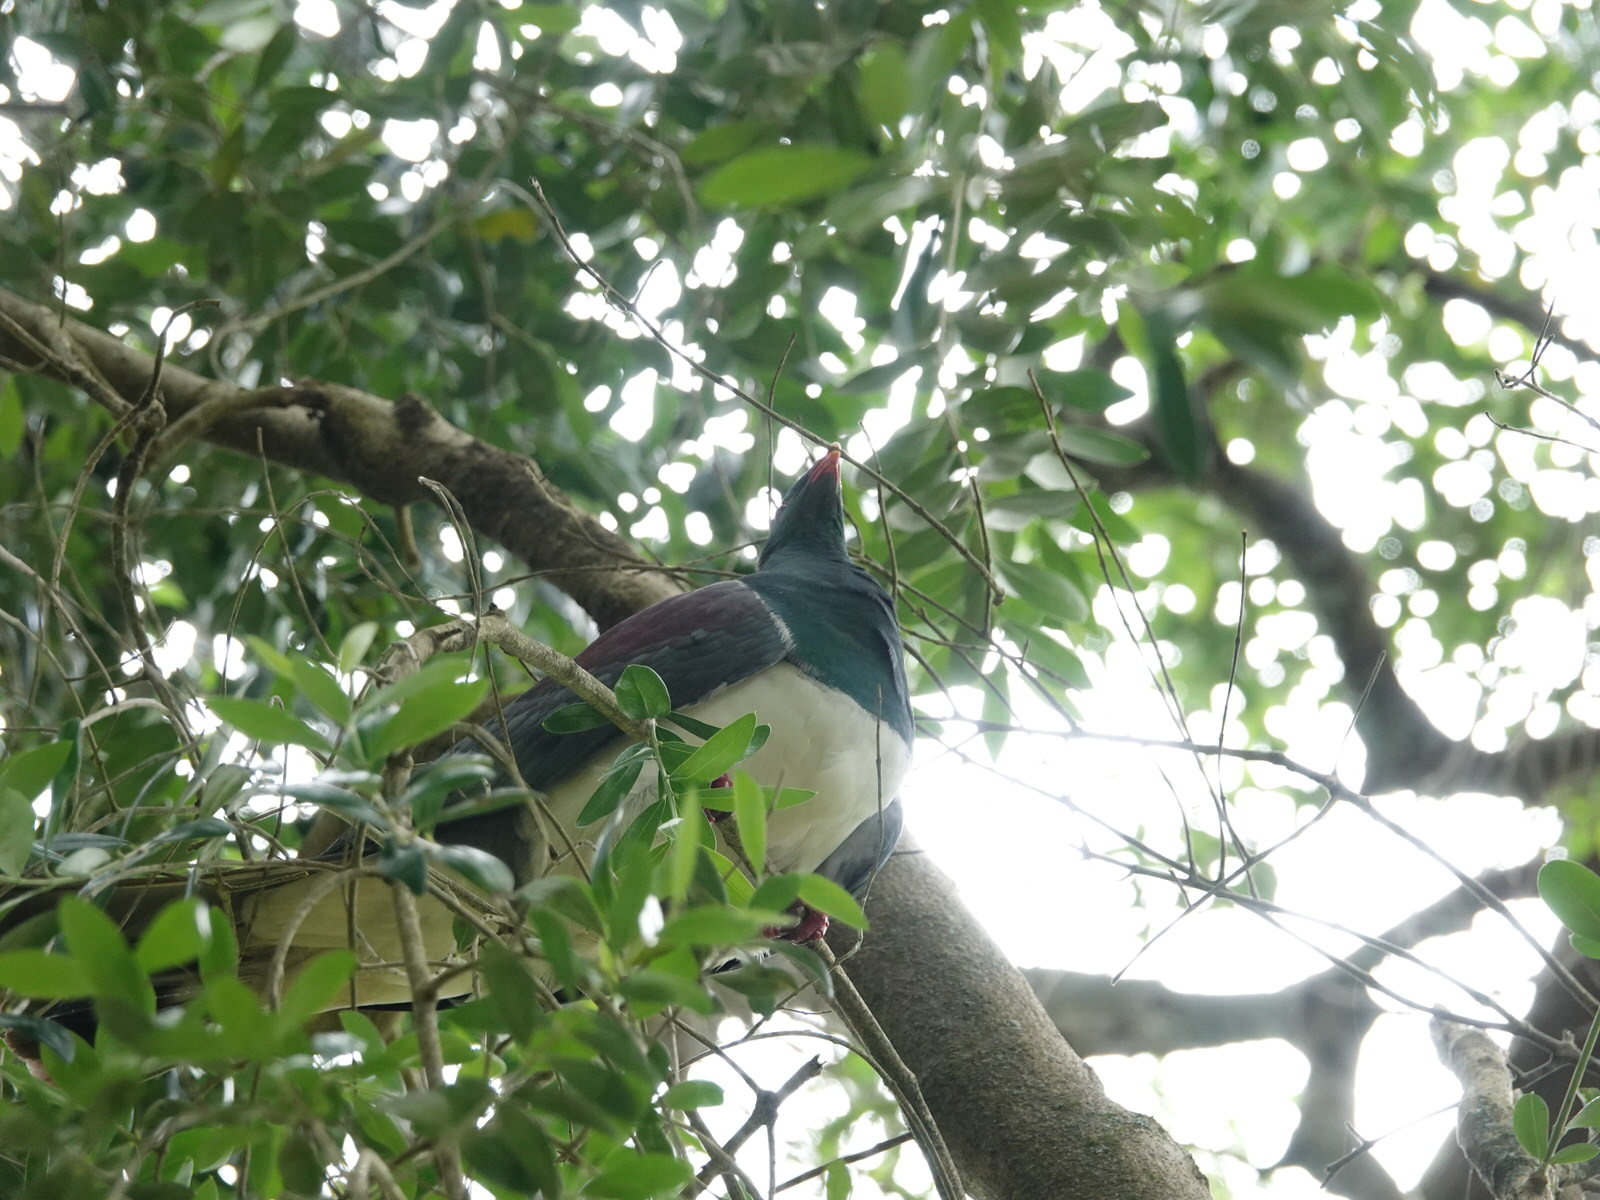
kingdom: Animalia
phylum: Chordata
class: Aves
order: Columbiformes
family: Columbidae
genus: Hemiphaga
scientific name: Hemiphaga novaeseelandiae
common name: New zealand pigeon
